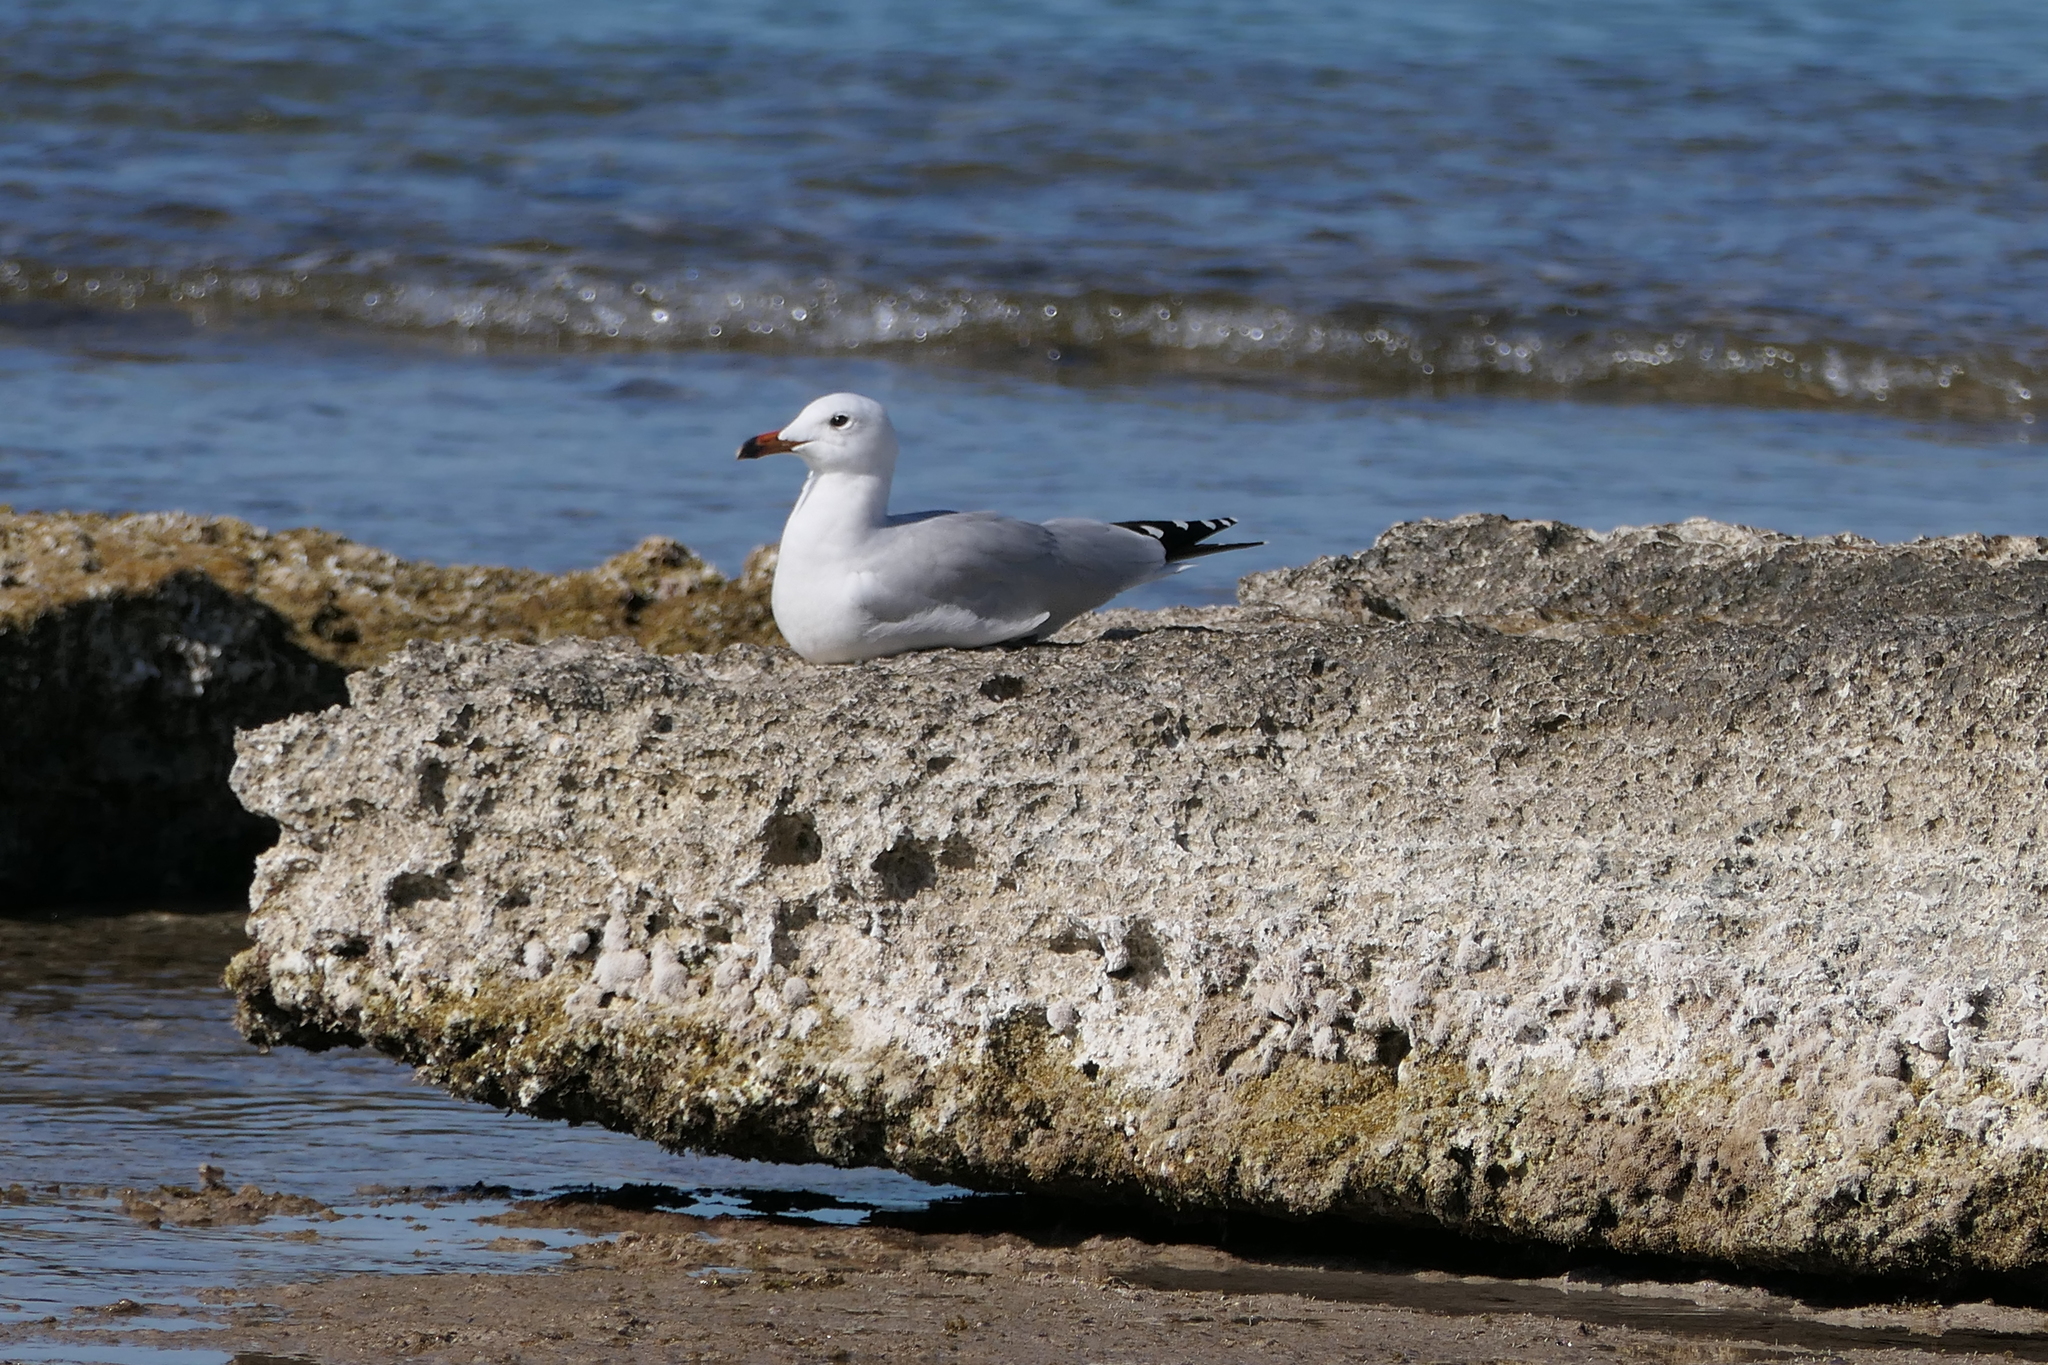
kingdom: Animalia
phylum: Chordata
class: Aves
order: Charadriiformes
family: Laridae
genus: Ichthyaetus
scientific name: Ichthyaetus audouinii
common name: Audouin's gull
